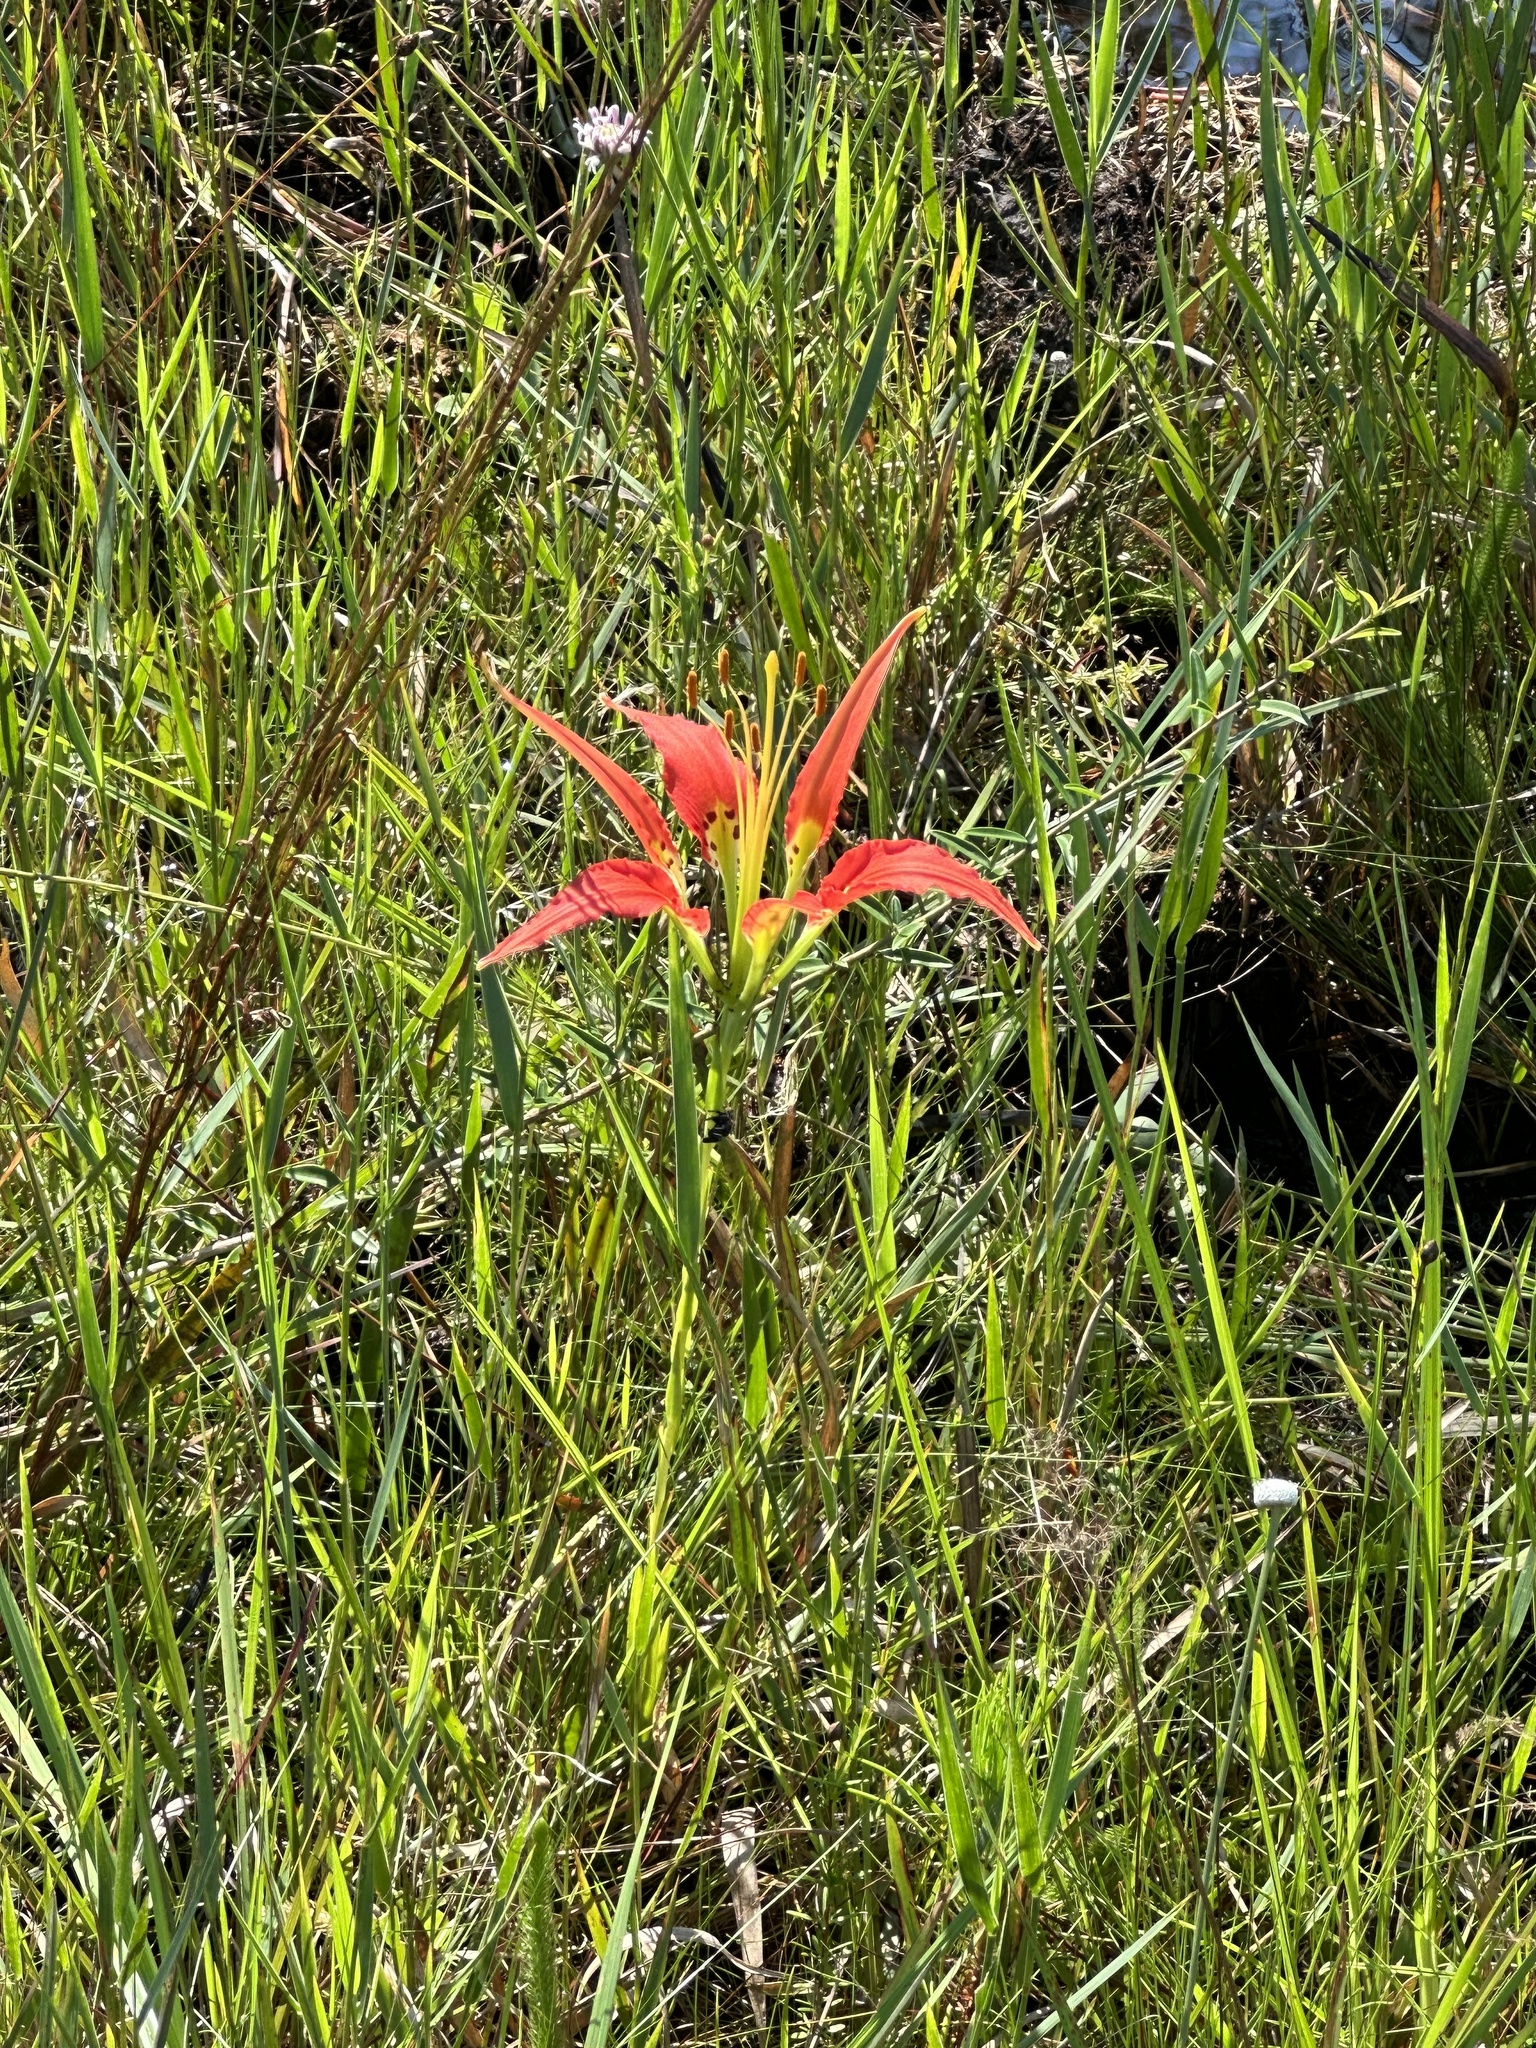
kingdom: Plantae
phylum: Tracheophyta
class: Liliopsida
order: Liliales
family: Liliaceae
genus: Lilium
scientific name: Lilium catesbaei
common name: Catesby's lily
